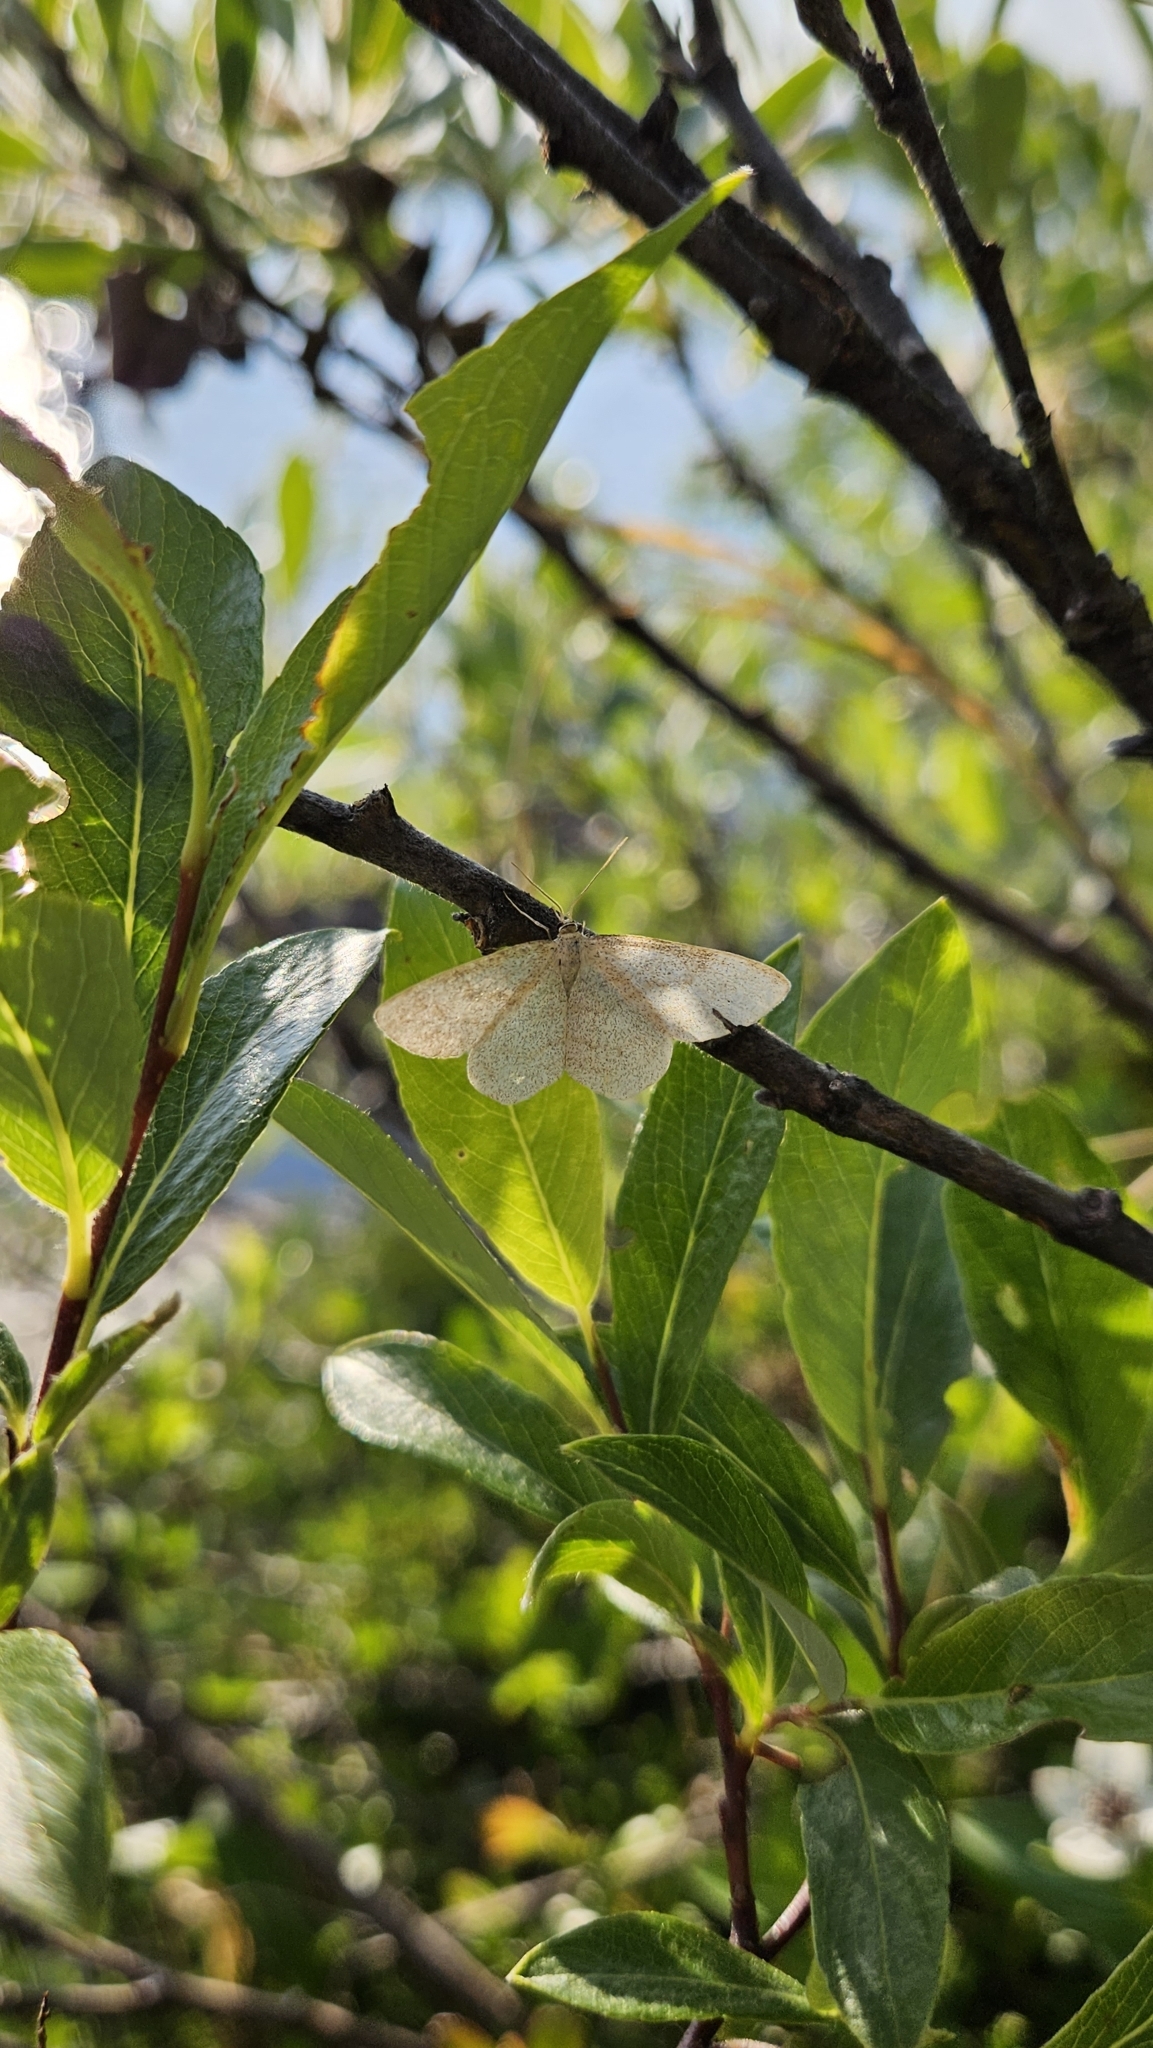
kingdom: Animalia
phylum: Arthropoda
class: Insecta
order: Lepidoptera
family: Geometridae
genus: Scopula
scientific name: Scopula ternata
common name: Smoky wave
